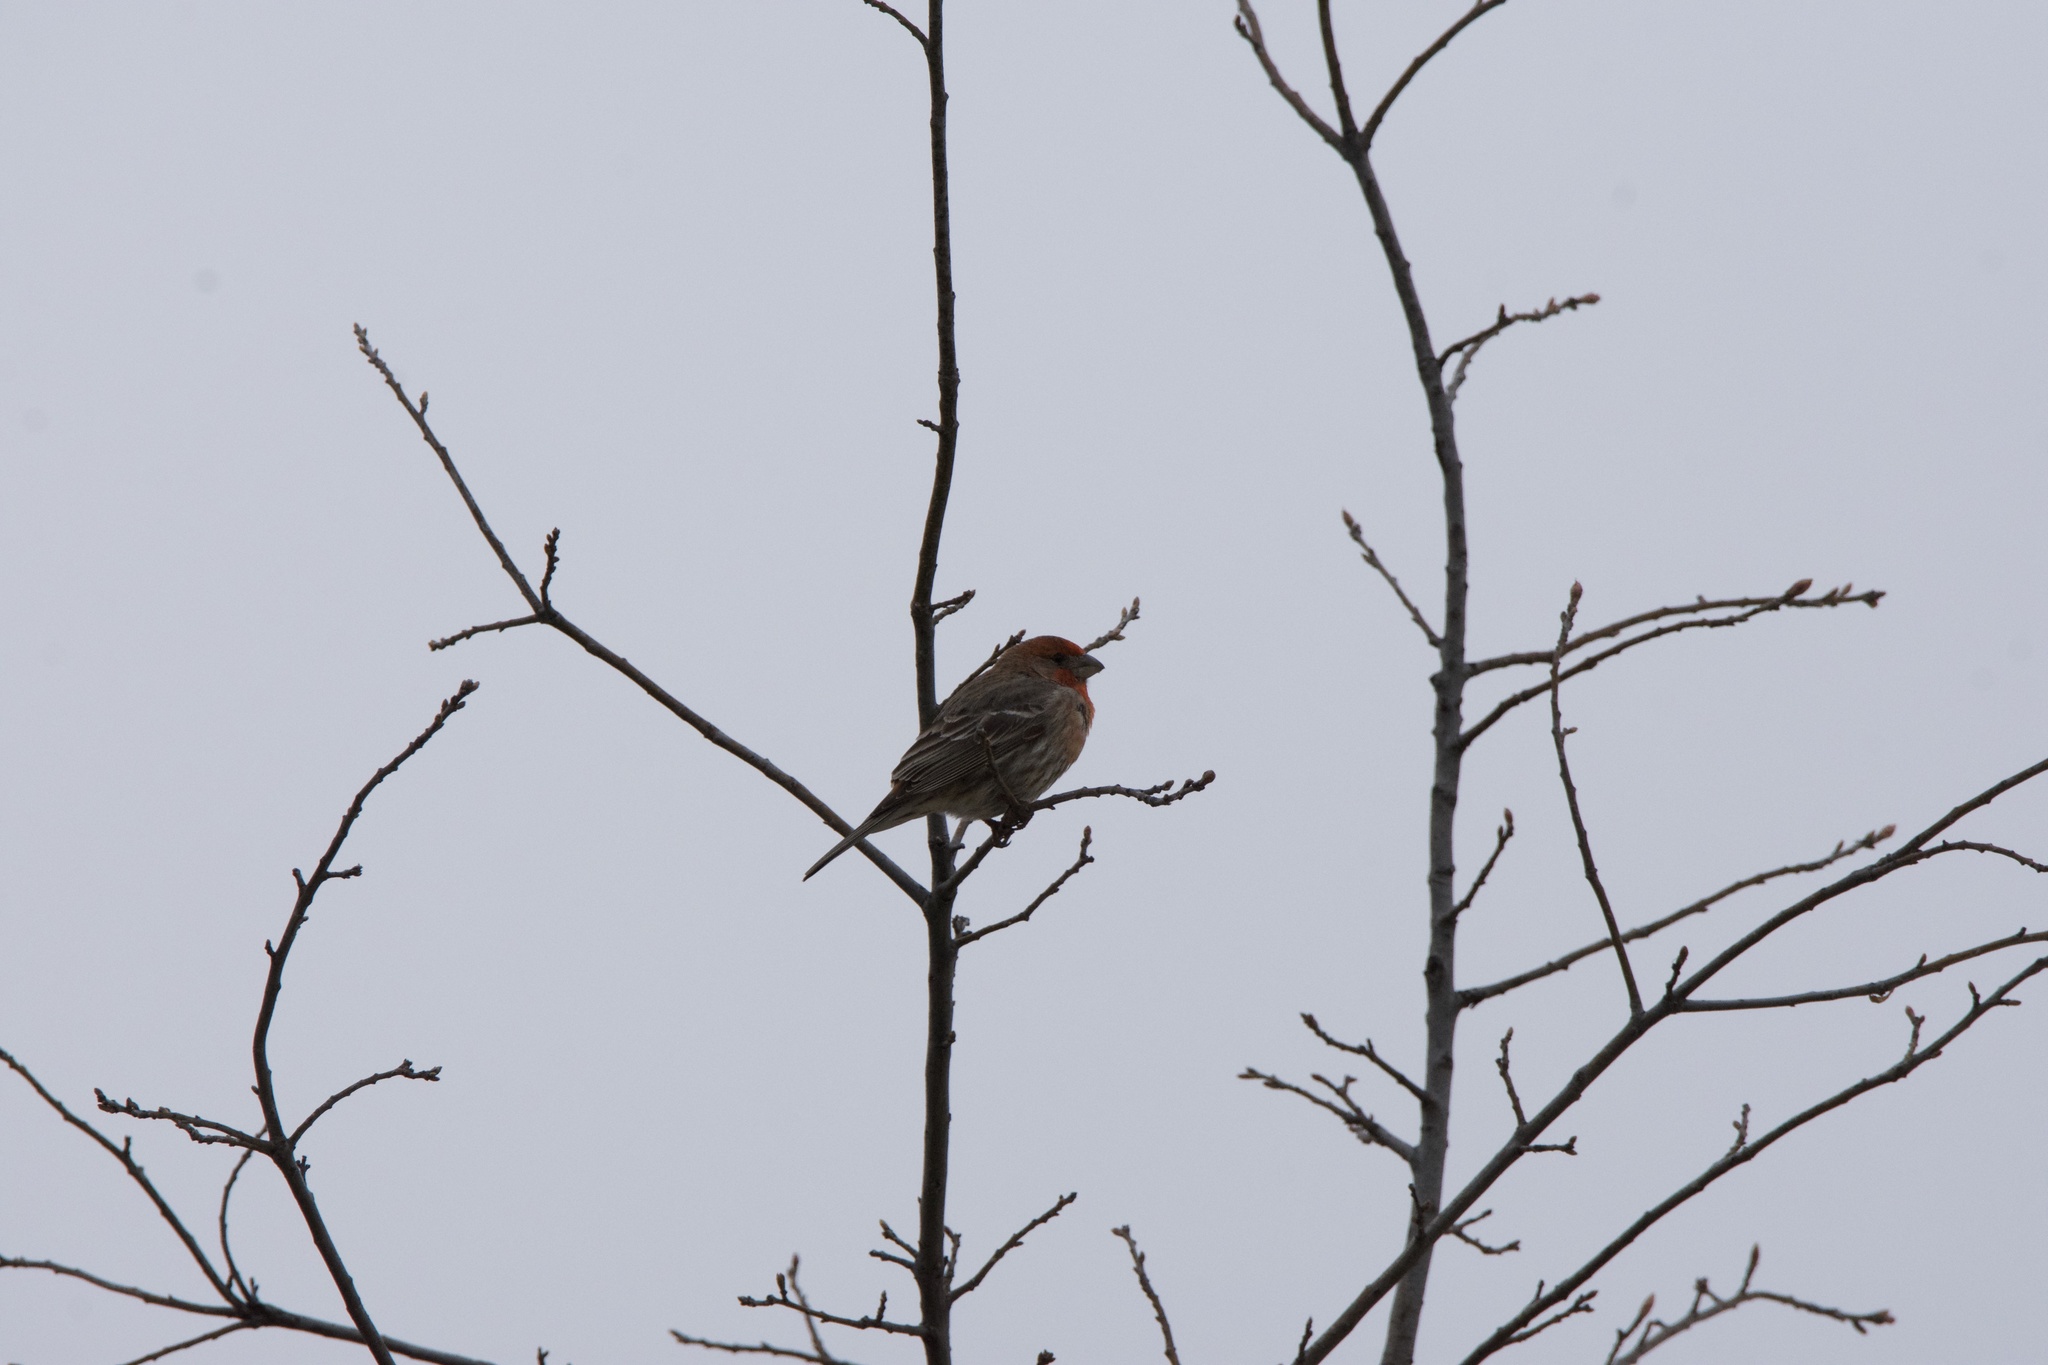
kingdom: Animalia
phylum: Chordata
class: Aves
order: Passeriformes
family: Fringillidae
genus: Haemorhous
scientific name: Haemorhous mexicanus
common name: House finch
